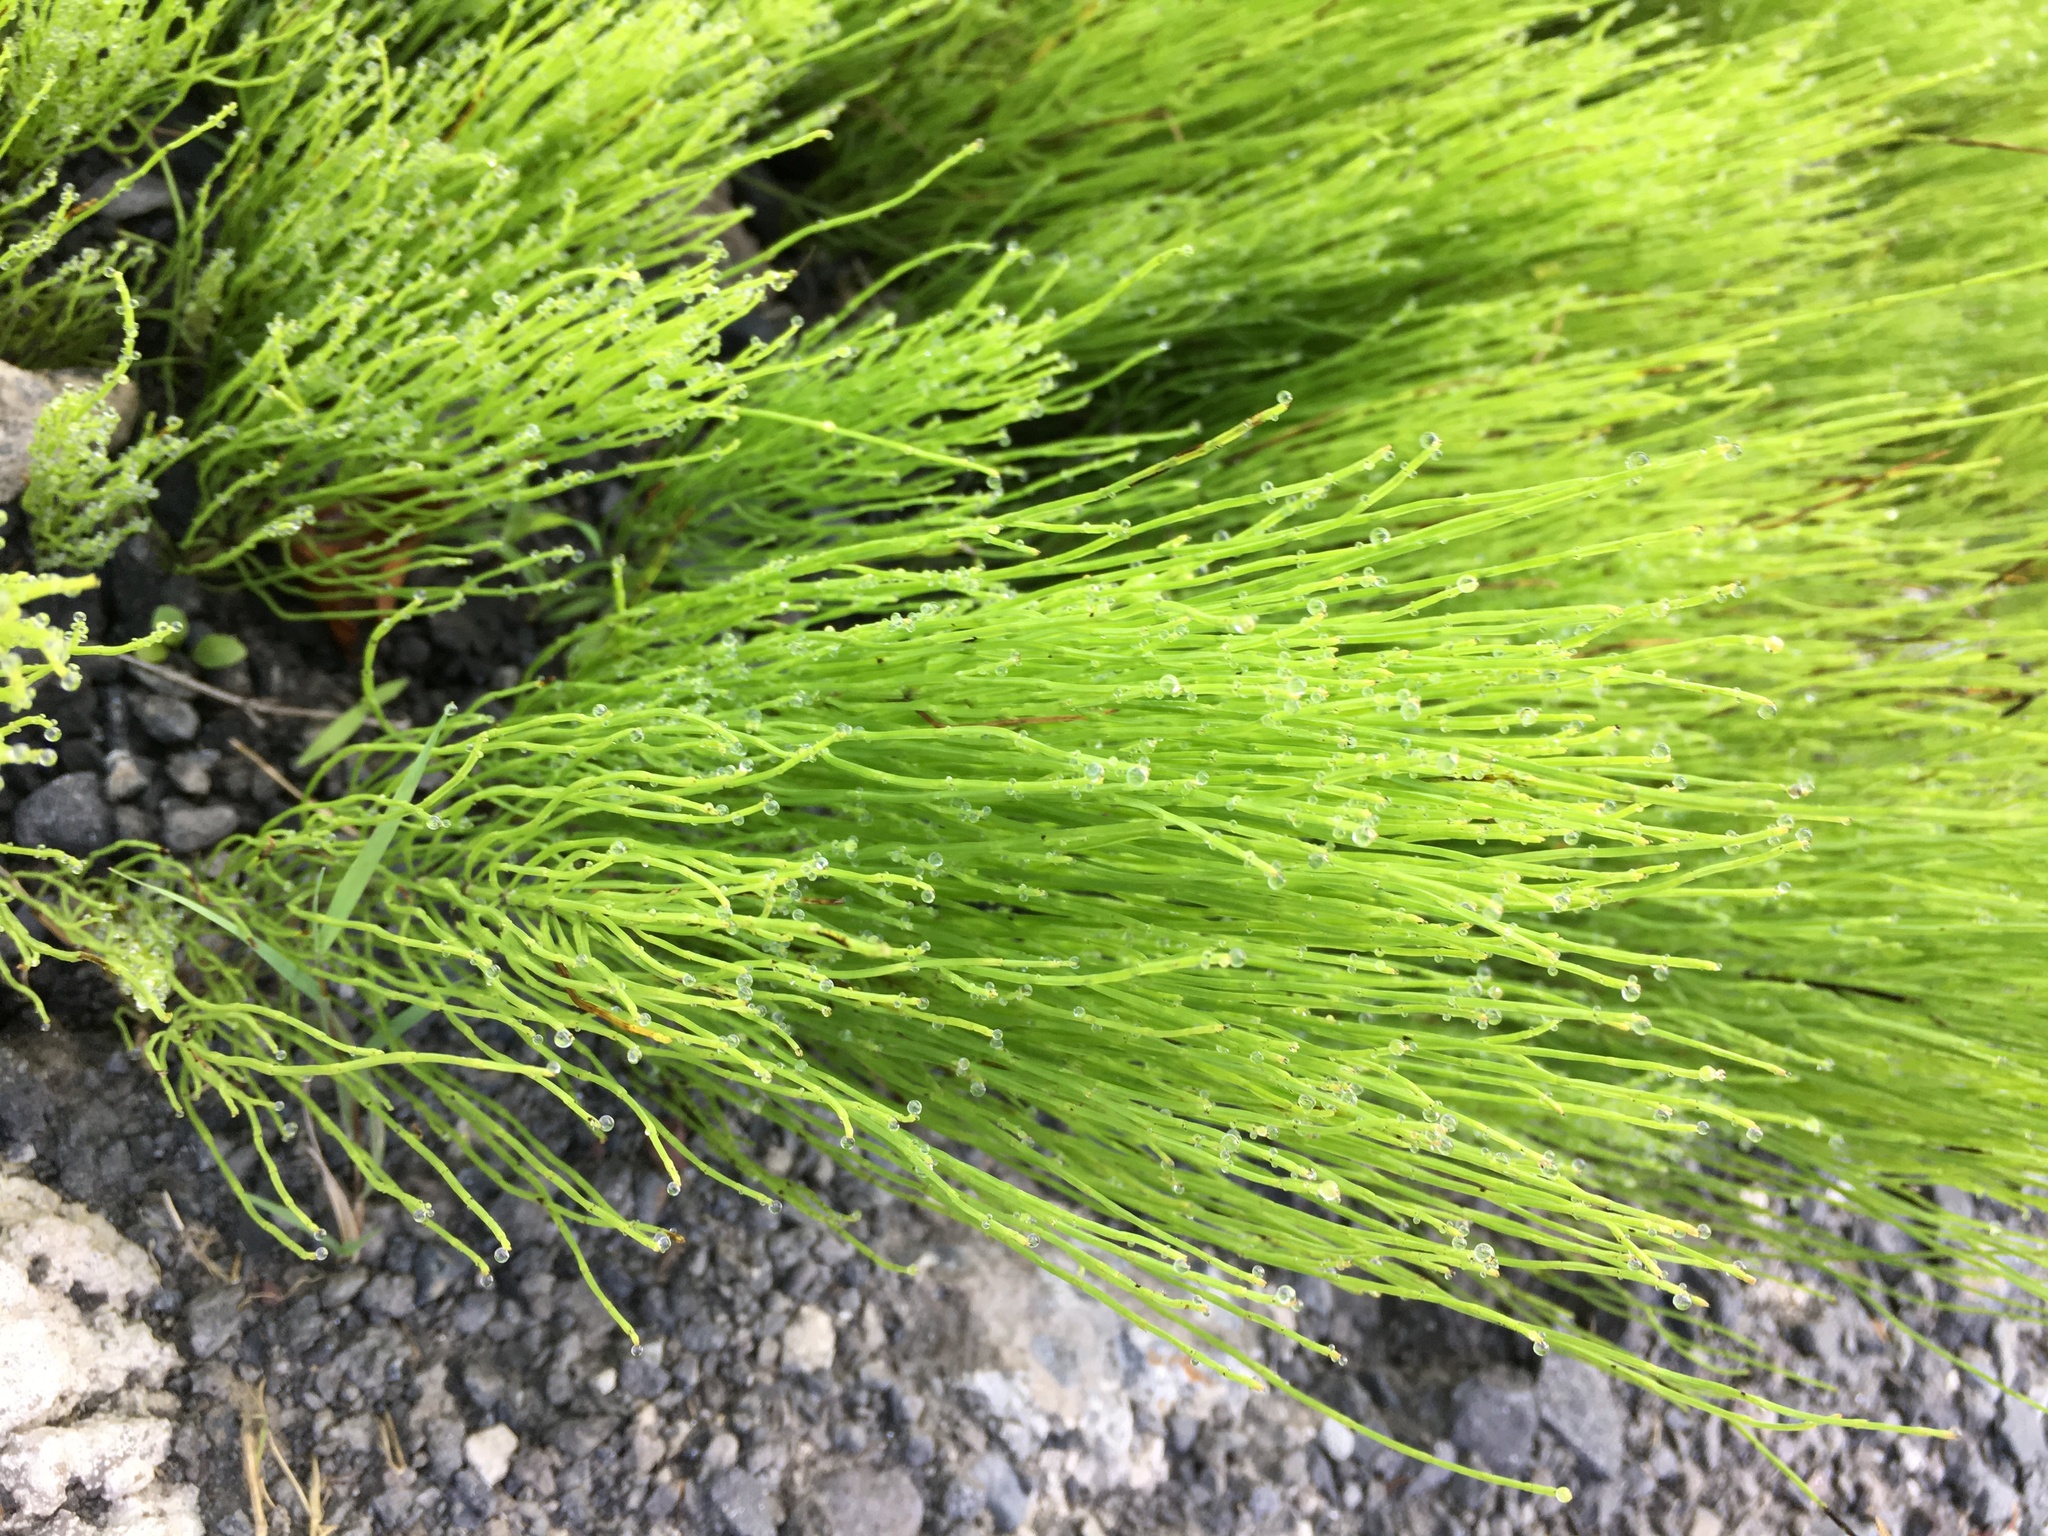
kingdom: Plantae
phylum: Tracheophyta
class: Polypodiopsida
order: Equisetales
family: Equisetaceae
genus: Equisetum
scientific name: Equisetum arvense
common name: Field horsetail
